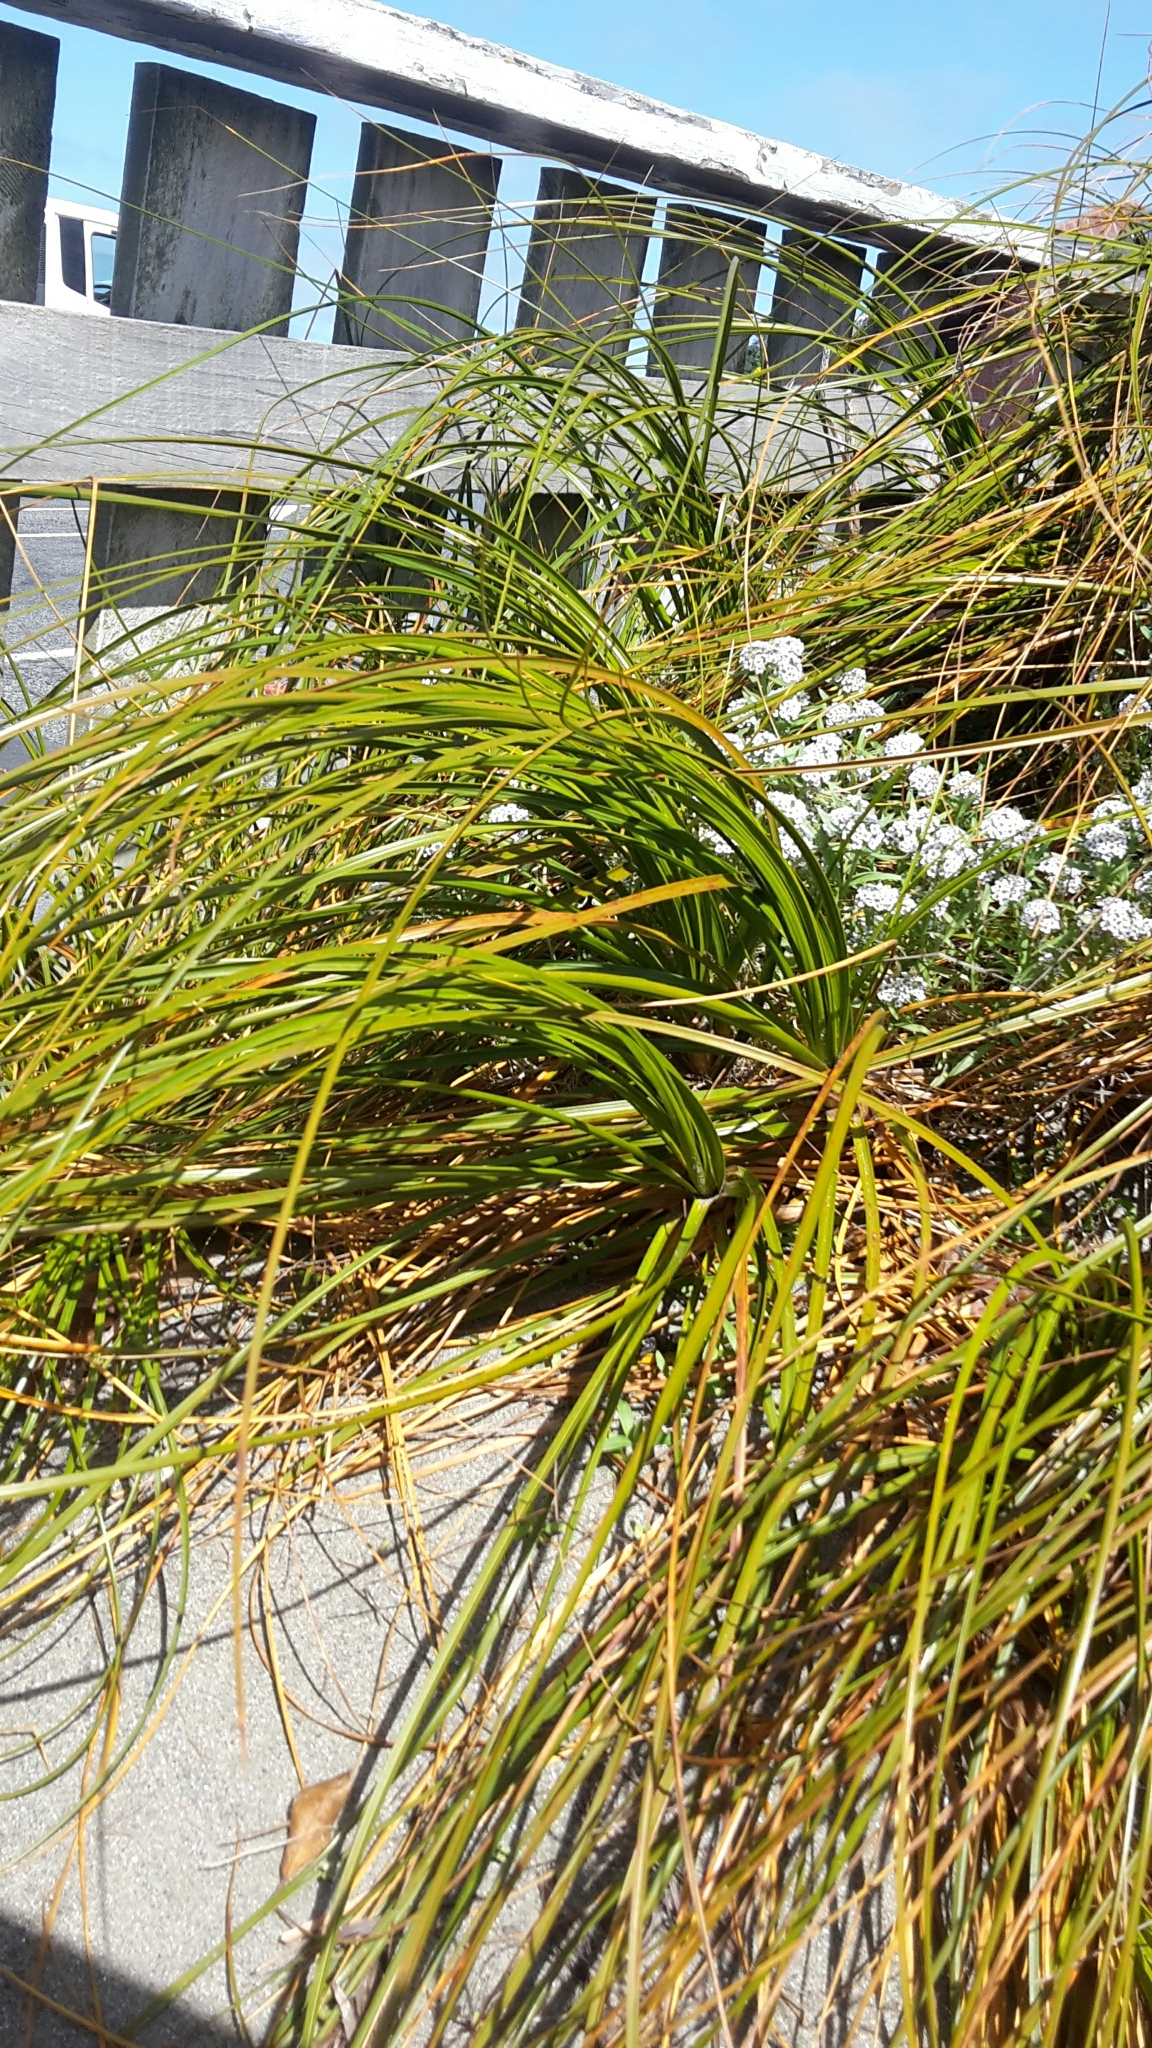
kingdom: Plantae
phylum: Tracheophyta
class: Liliopsida
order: Poales
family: Cyperaceae
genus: Ficinia
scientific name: Ficinia spiralis
